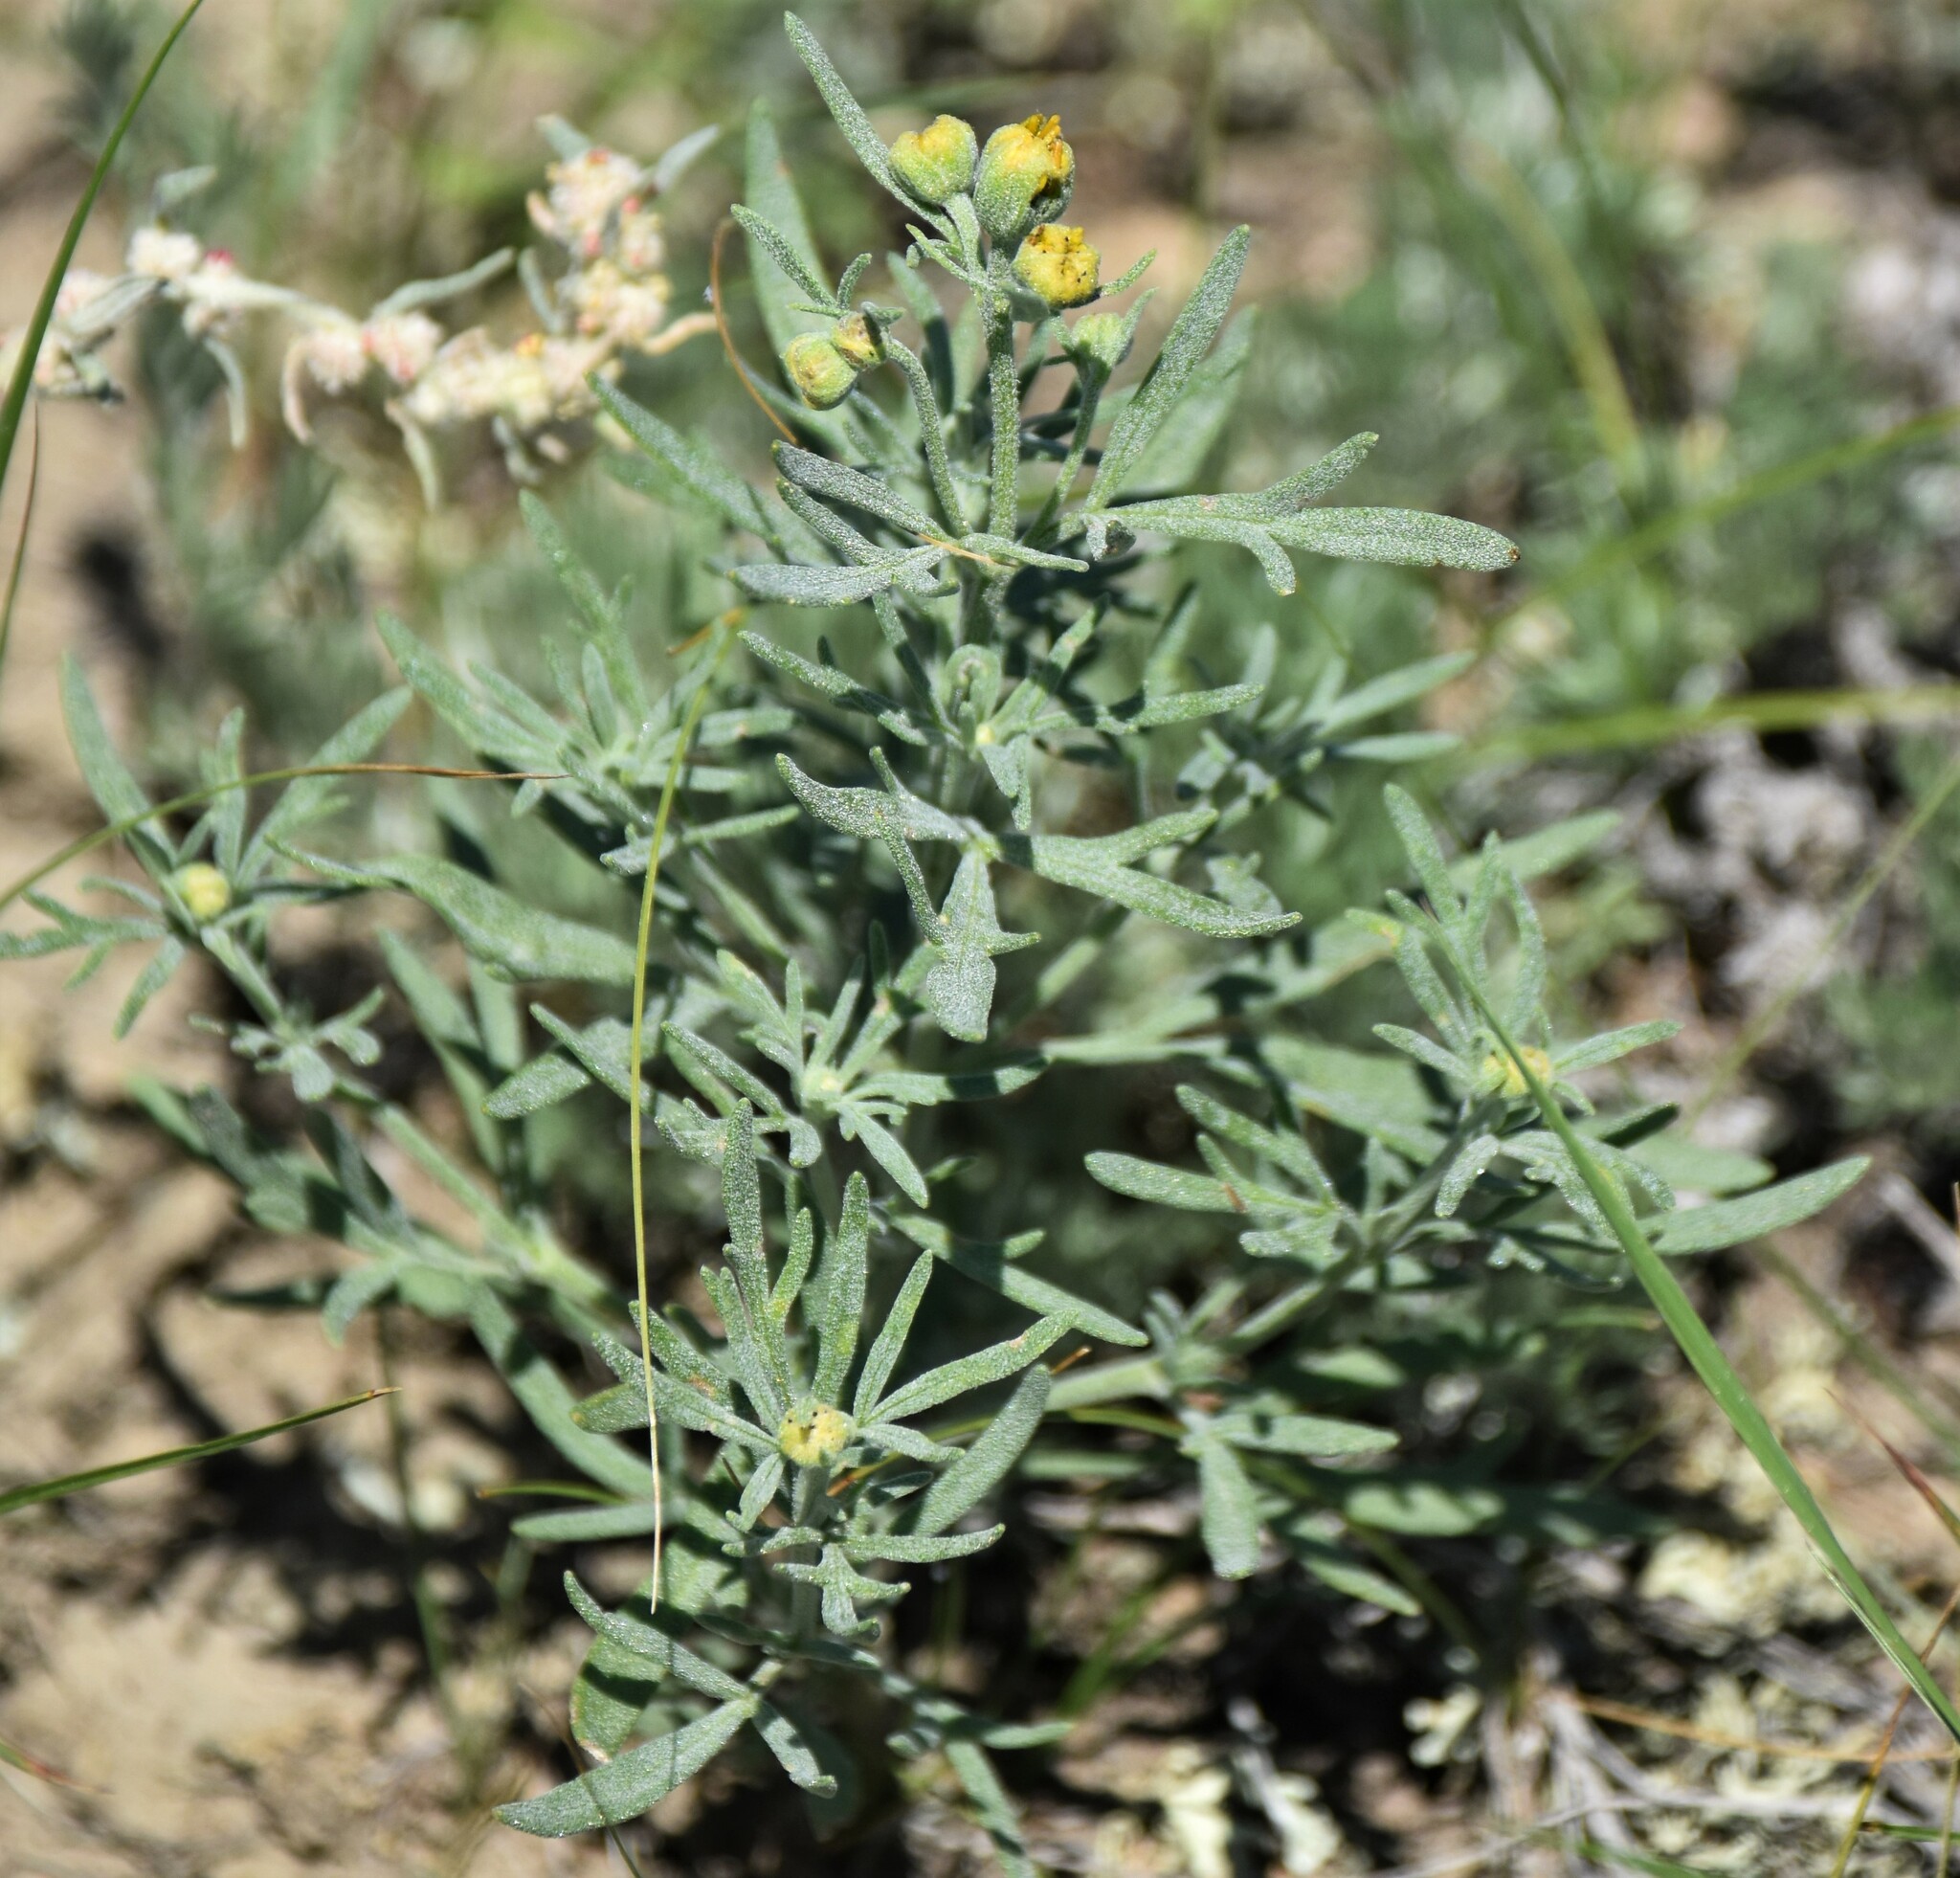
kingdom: Plantae
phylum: Tracheophyta
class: Magnoliopsida
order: Asterales
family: Asteraceae
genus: Picradeniopsis
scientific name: Picradeniopsis oppositifolia
